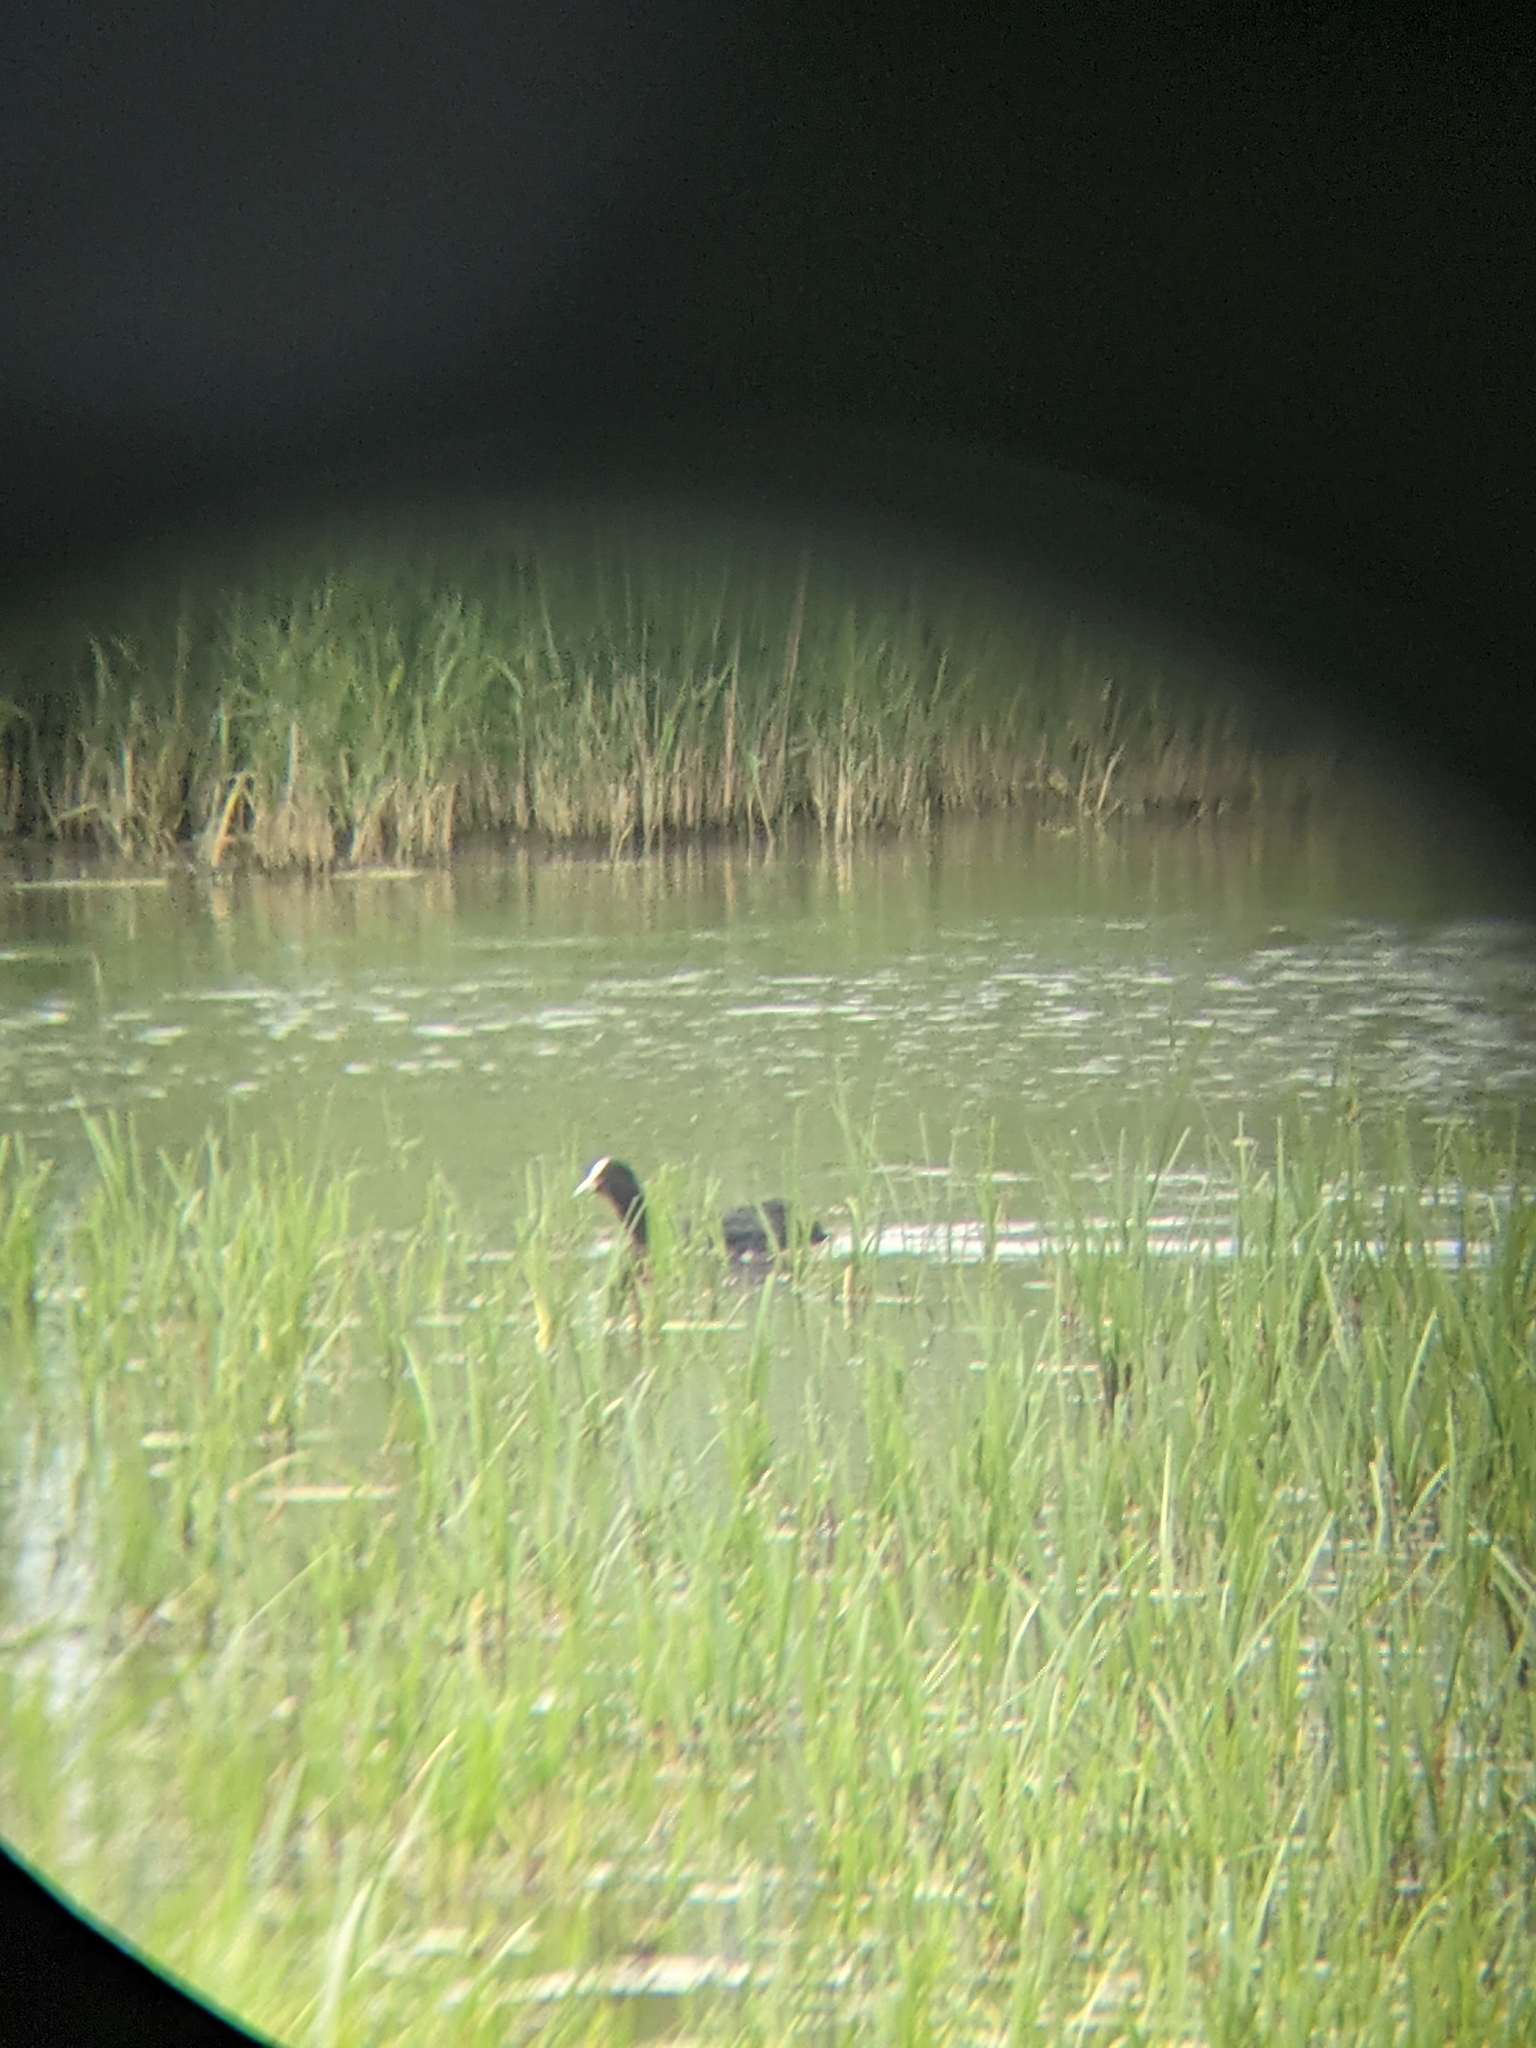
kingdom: Animalia
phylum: Chordata
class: Aves
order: Gruiformes
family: Rallidae
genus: Fulica
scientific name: Fulica atra
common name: Eurasian coot
